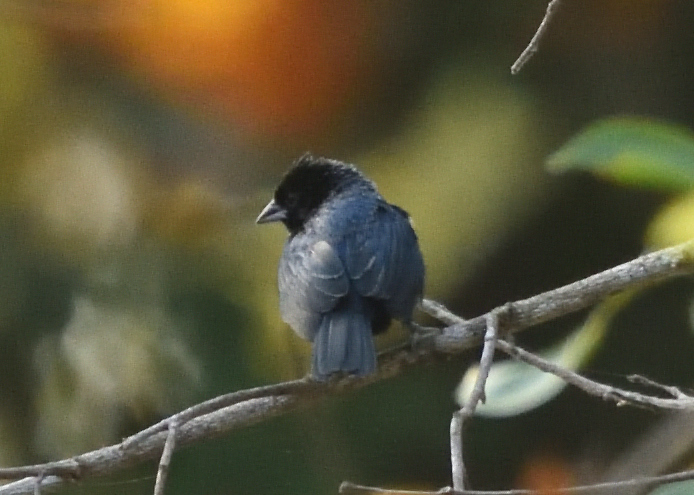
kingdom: Animalia
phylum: Chordata
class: Aves
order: Passeriformes
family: Thraupidae
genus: Volatinia
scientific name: Volatinia jacarina
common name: Blue-black grassquit
